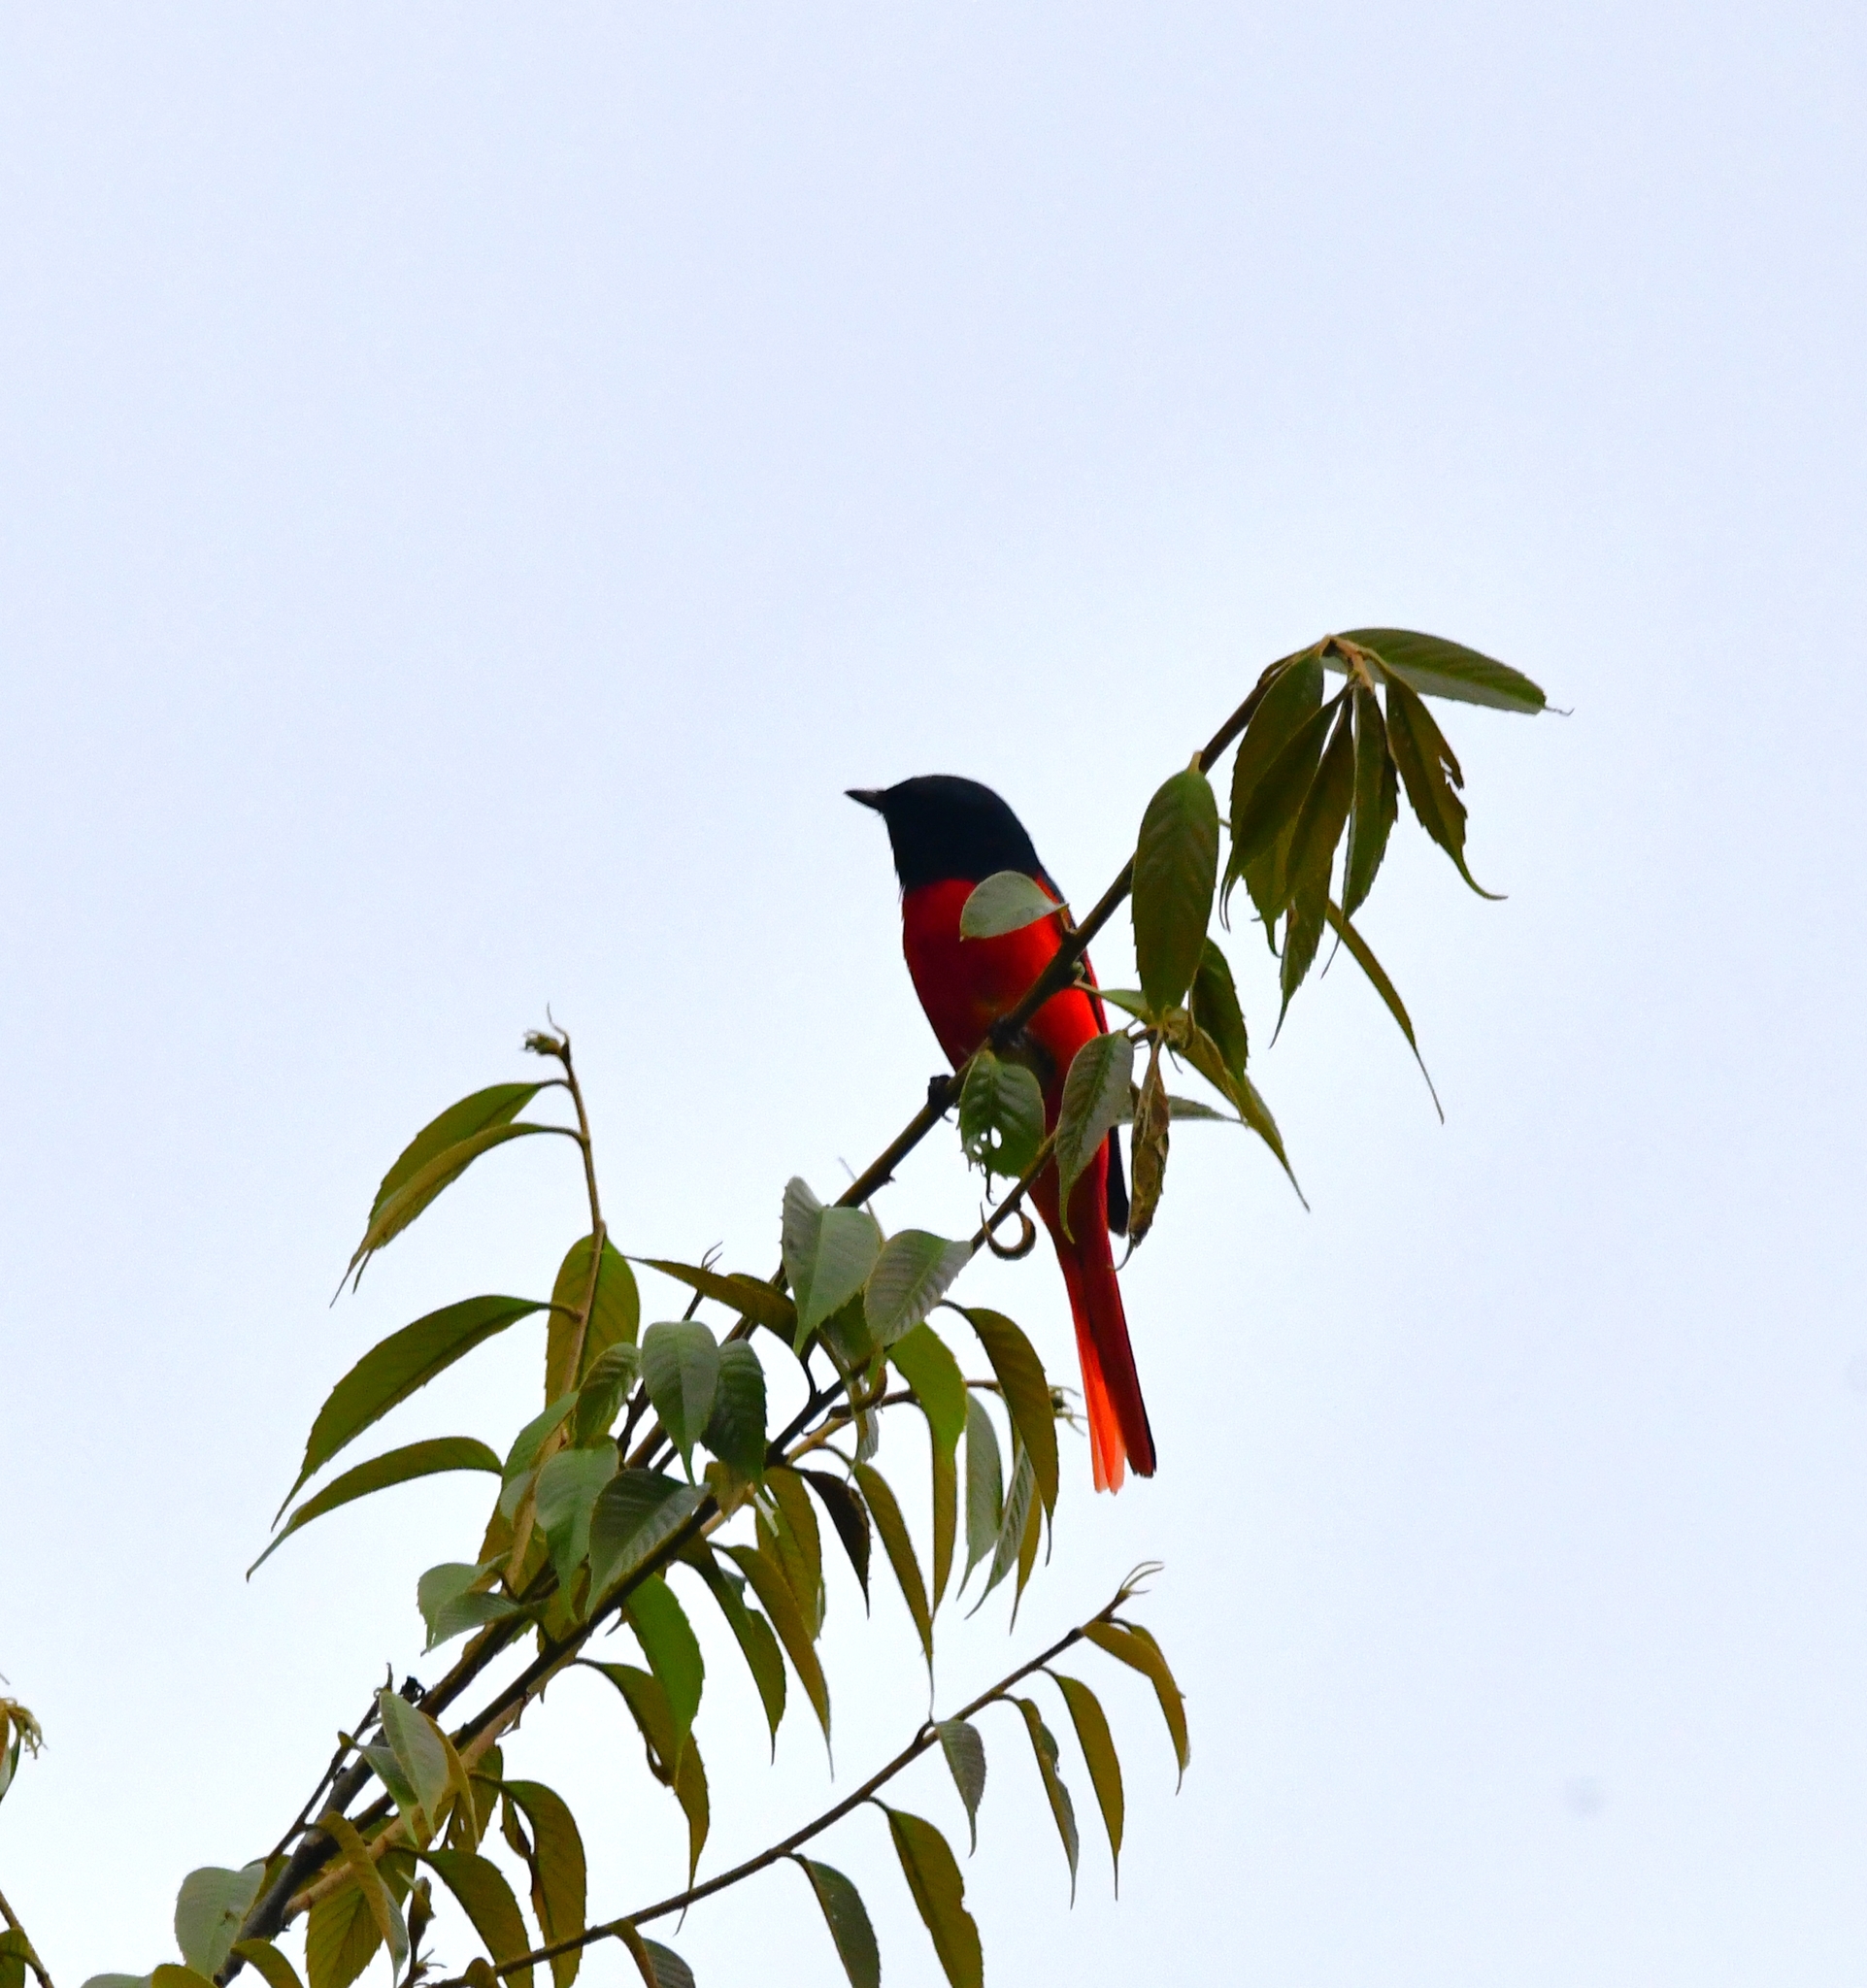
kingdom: Animalia
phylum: Chordata
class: Aves
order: Passeriformes
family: Campephagidae
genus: Pericrocotus
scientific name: Pericrocotus speciosus
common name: Scarlet minivet
